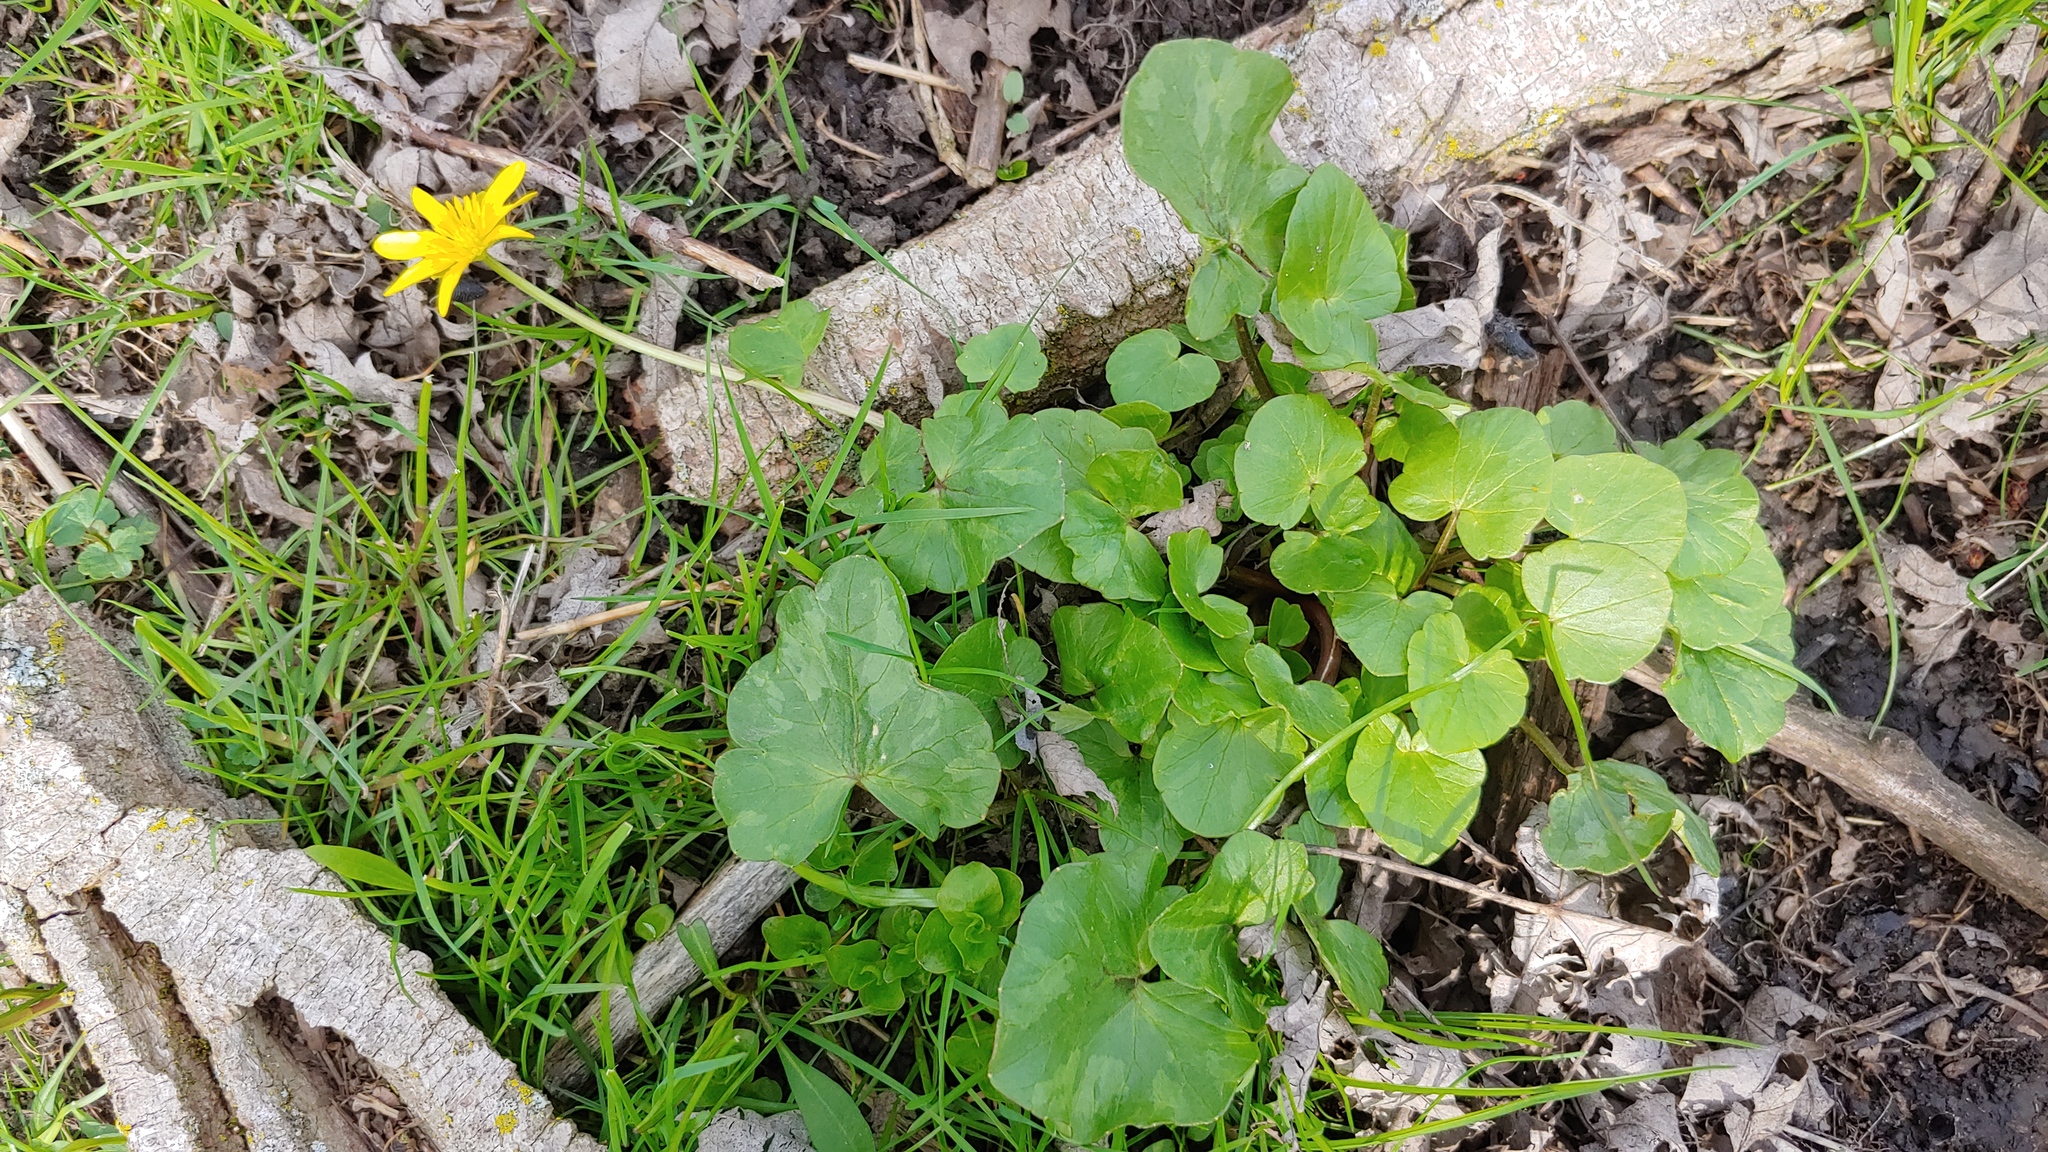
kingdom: Plantae
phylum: Tracheophyta
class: Magnoliopsida
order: Ranunculales
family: Ranunculaceae
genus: Ficaria
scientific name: Ficaria verna
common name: Lesser celandine
